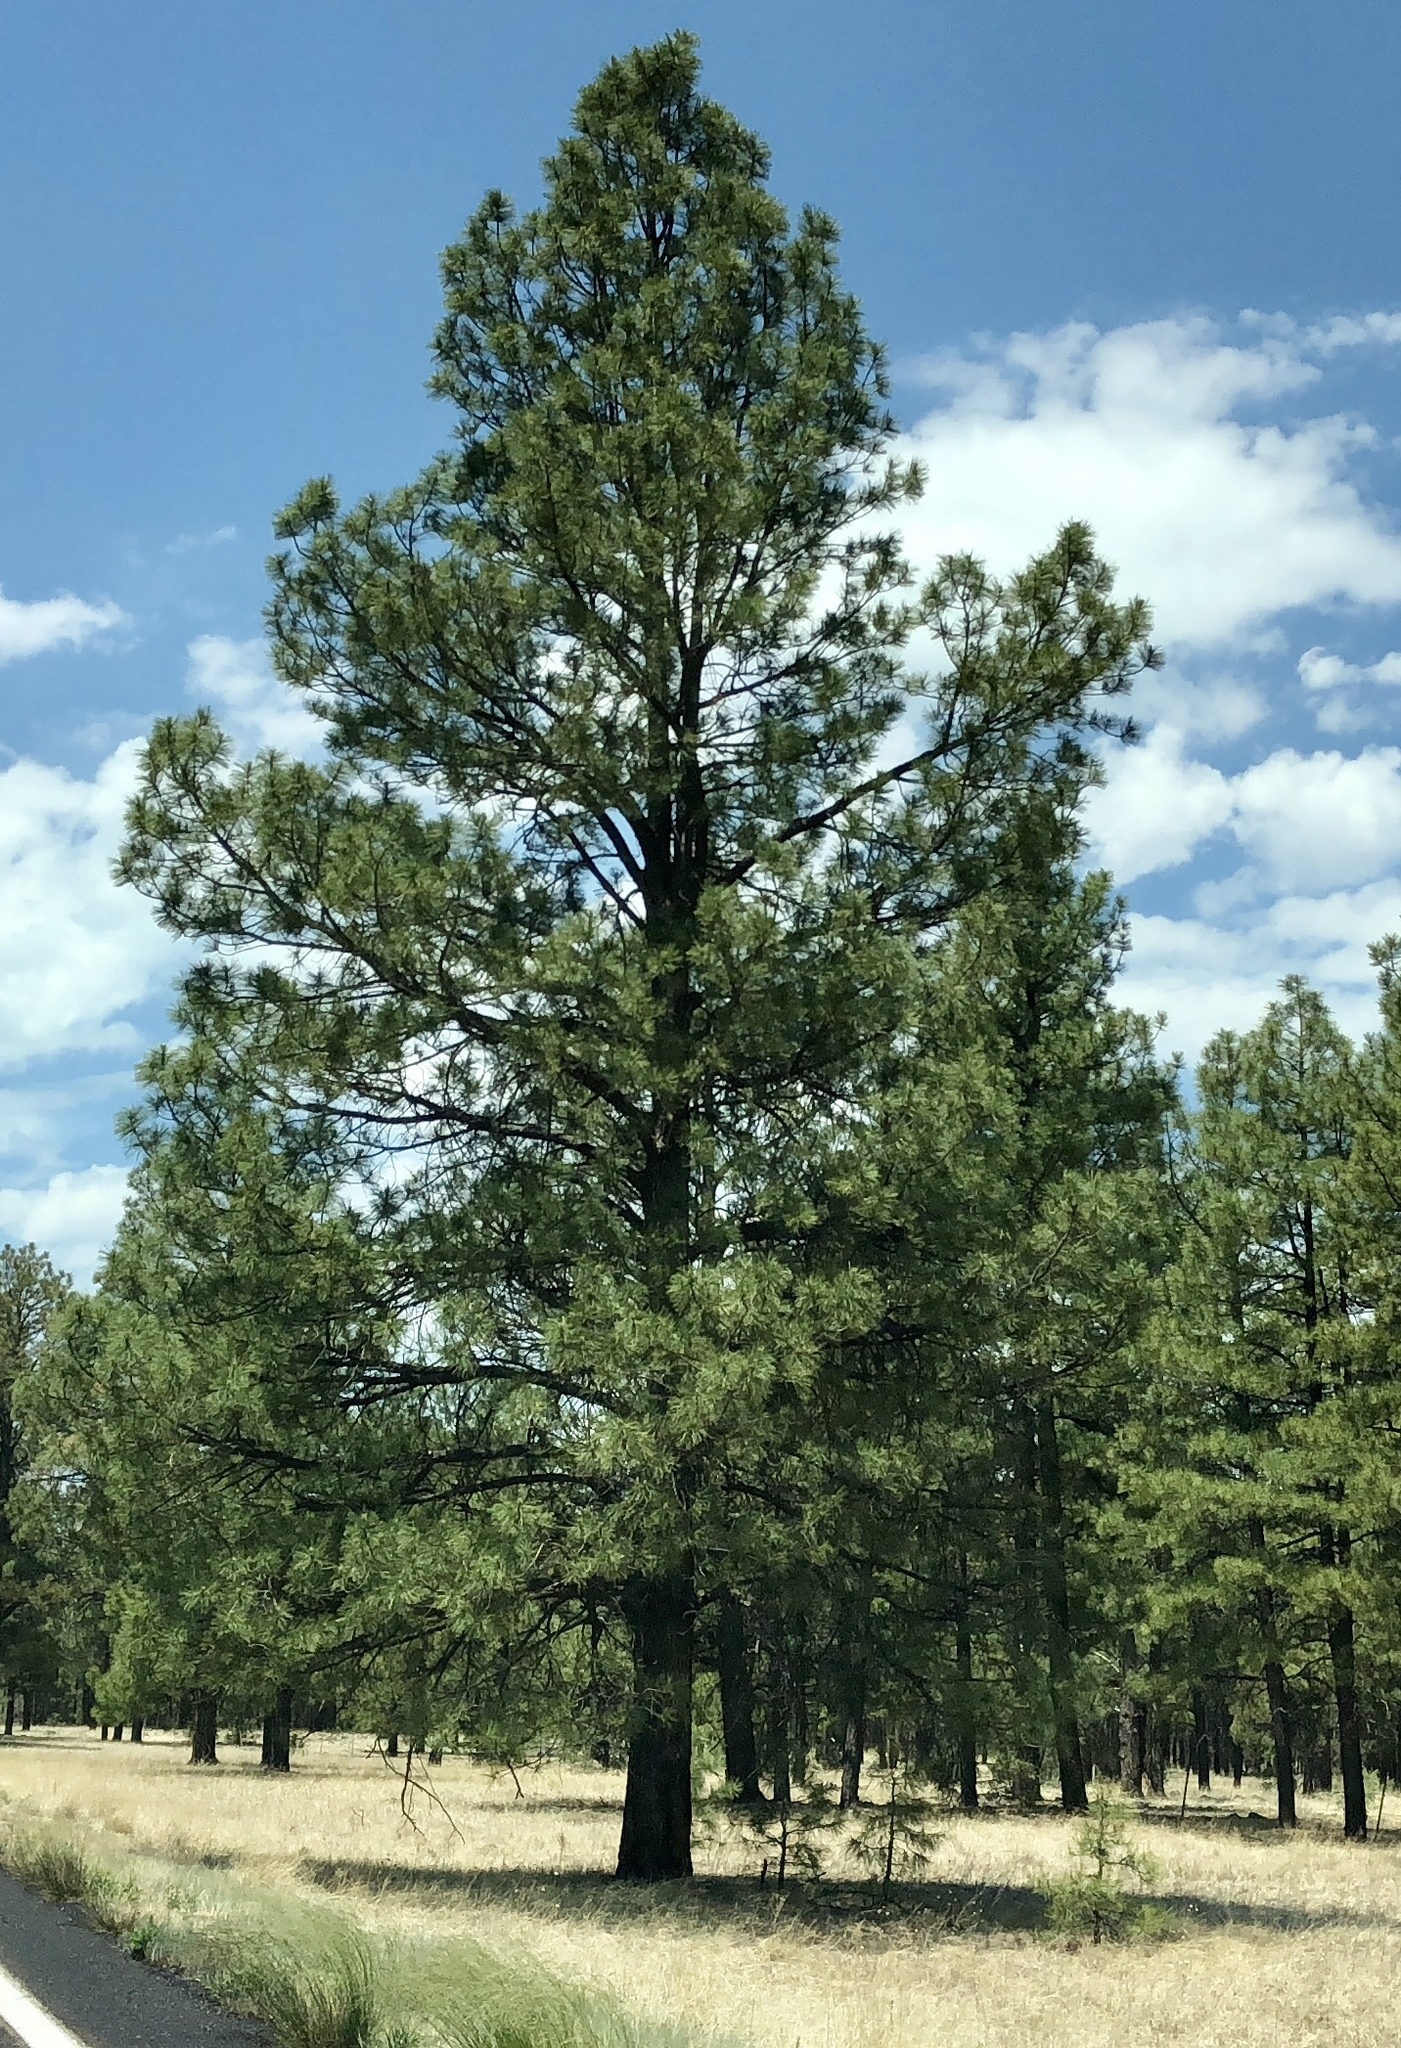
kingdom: Plantae
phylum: Tracheophyta
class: Pinopsida
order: Pinales
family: Pinaceae
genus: Pinus
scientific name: Pinus ponderosa
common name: Western yellow-pine
